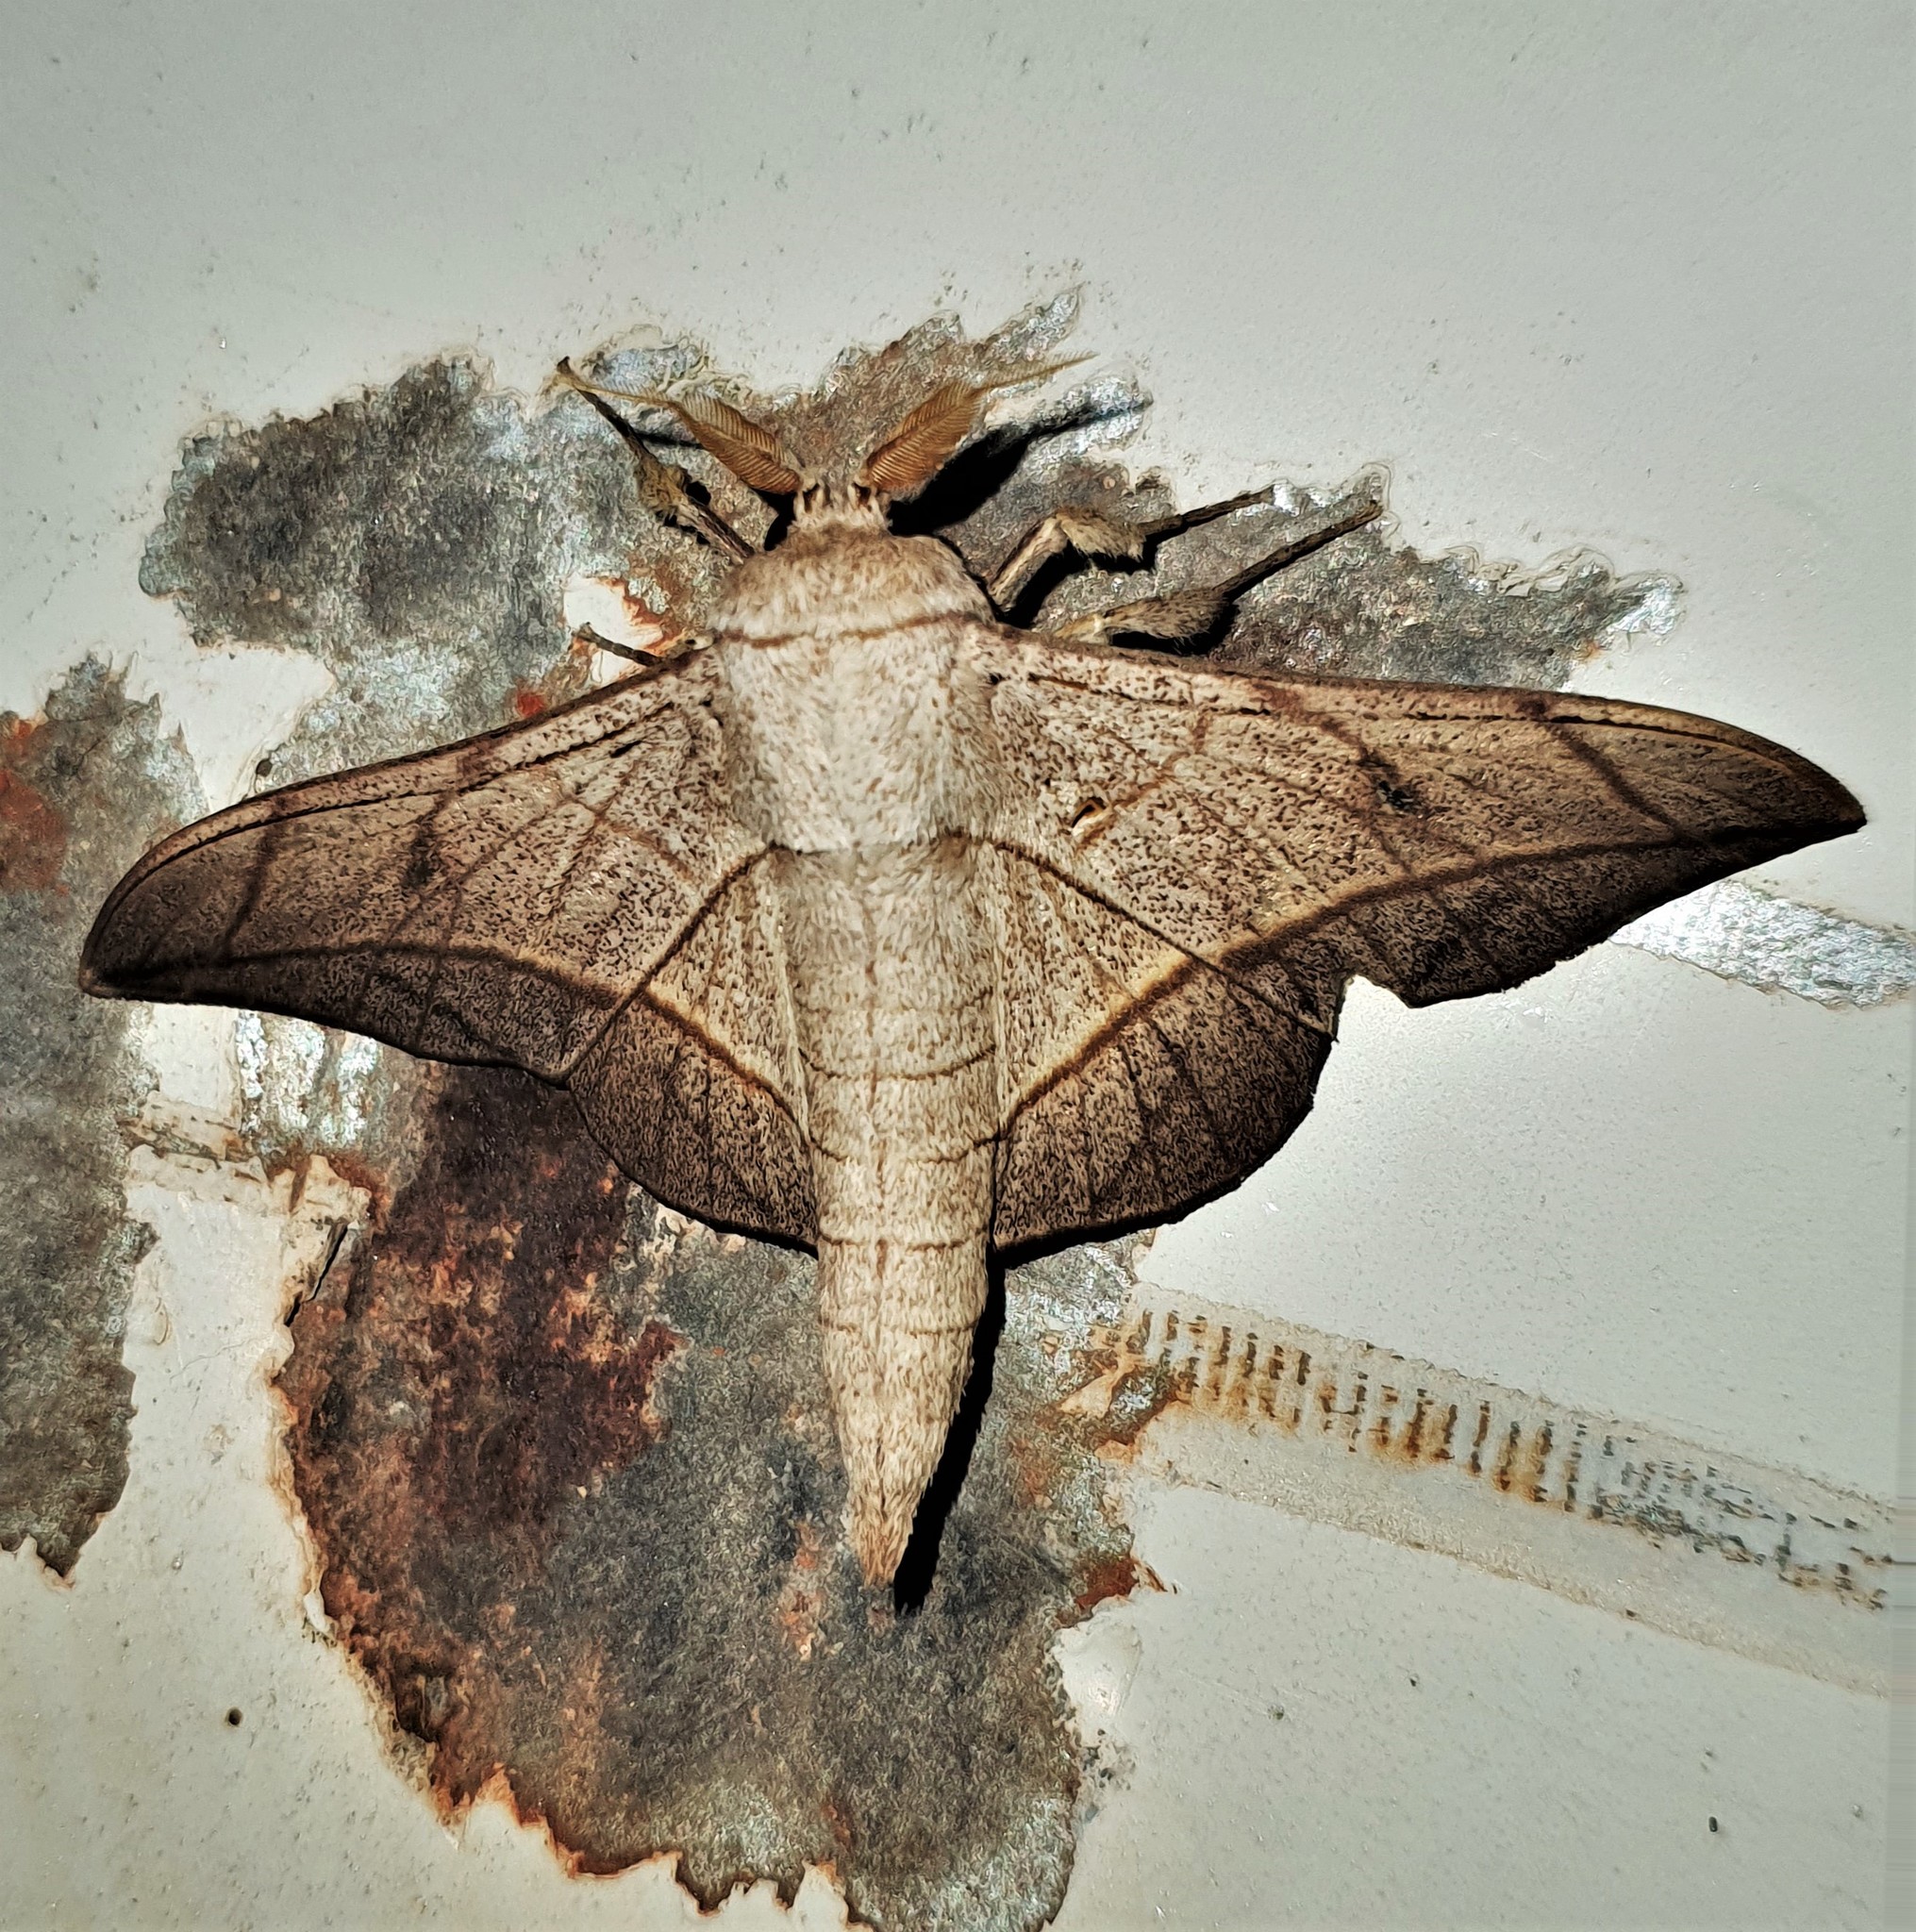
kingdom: Animalia
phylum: Arthropoda
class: Insecta
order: Lepidoptera
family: Mimallonidae
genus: Bedosia
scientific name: Bedosia fraterna
